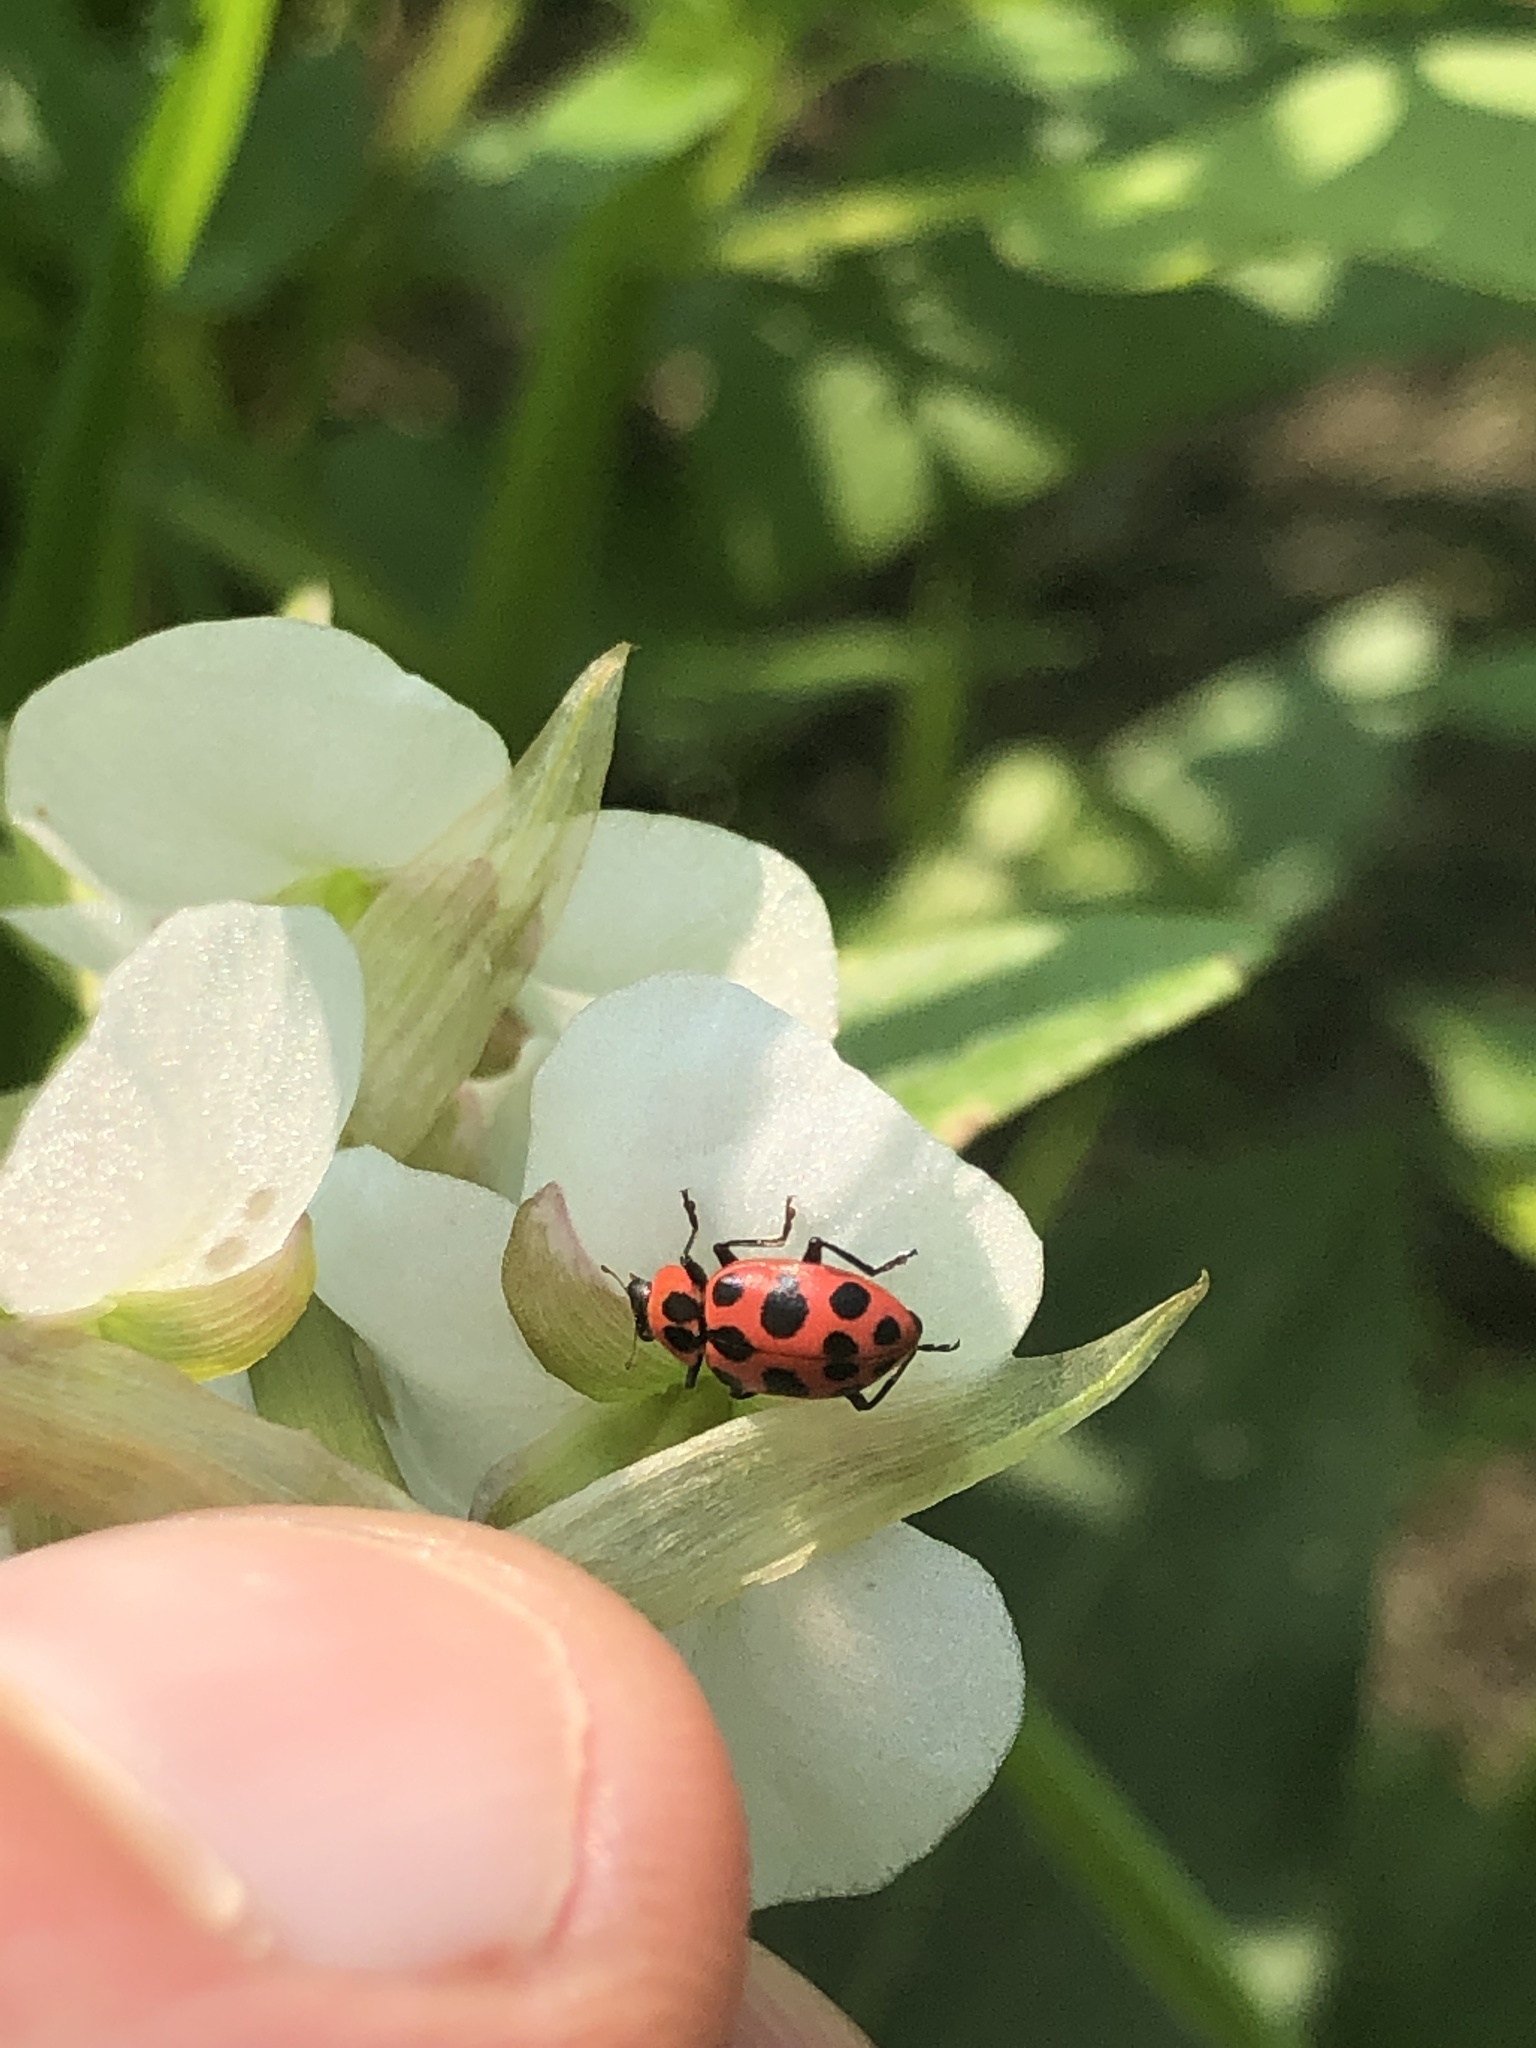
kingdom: Animalia
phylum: Arthropoda
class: Insecta
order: Coleoptera
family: Coccinellidae
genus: Coleomegilla
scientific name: Coleomegilla maculata
